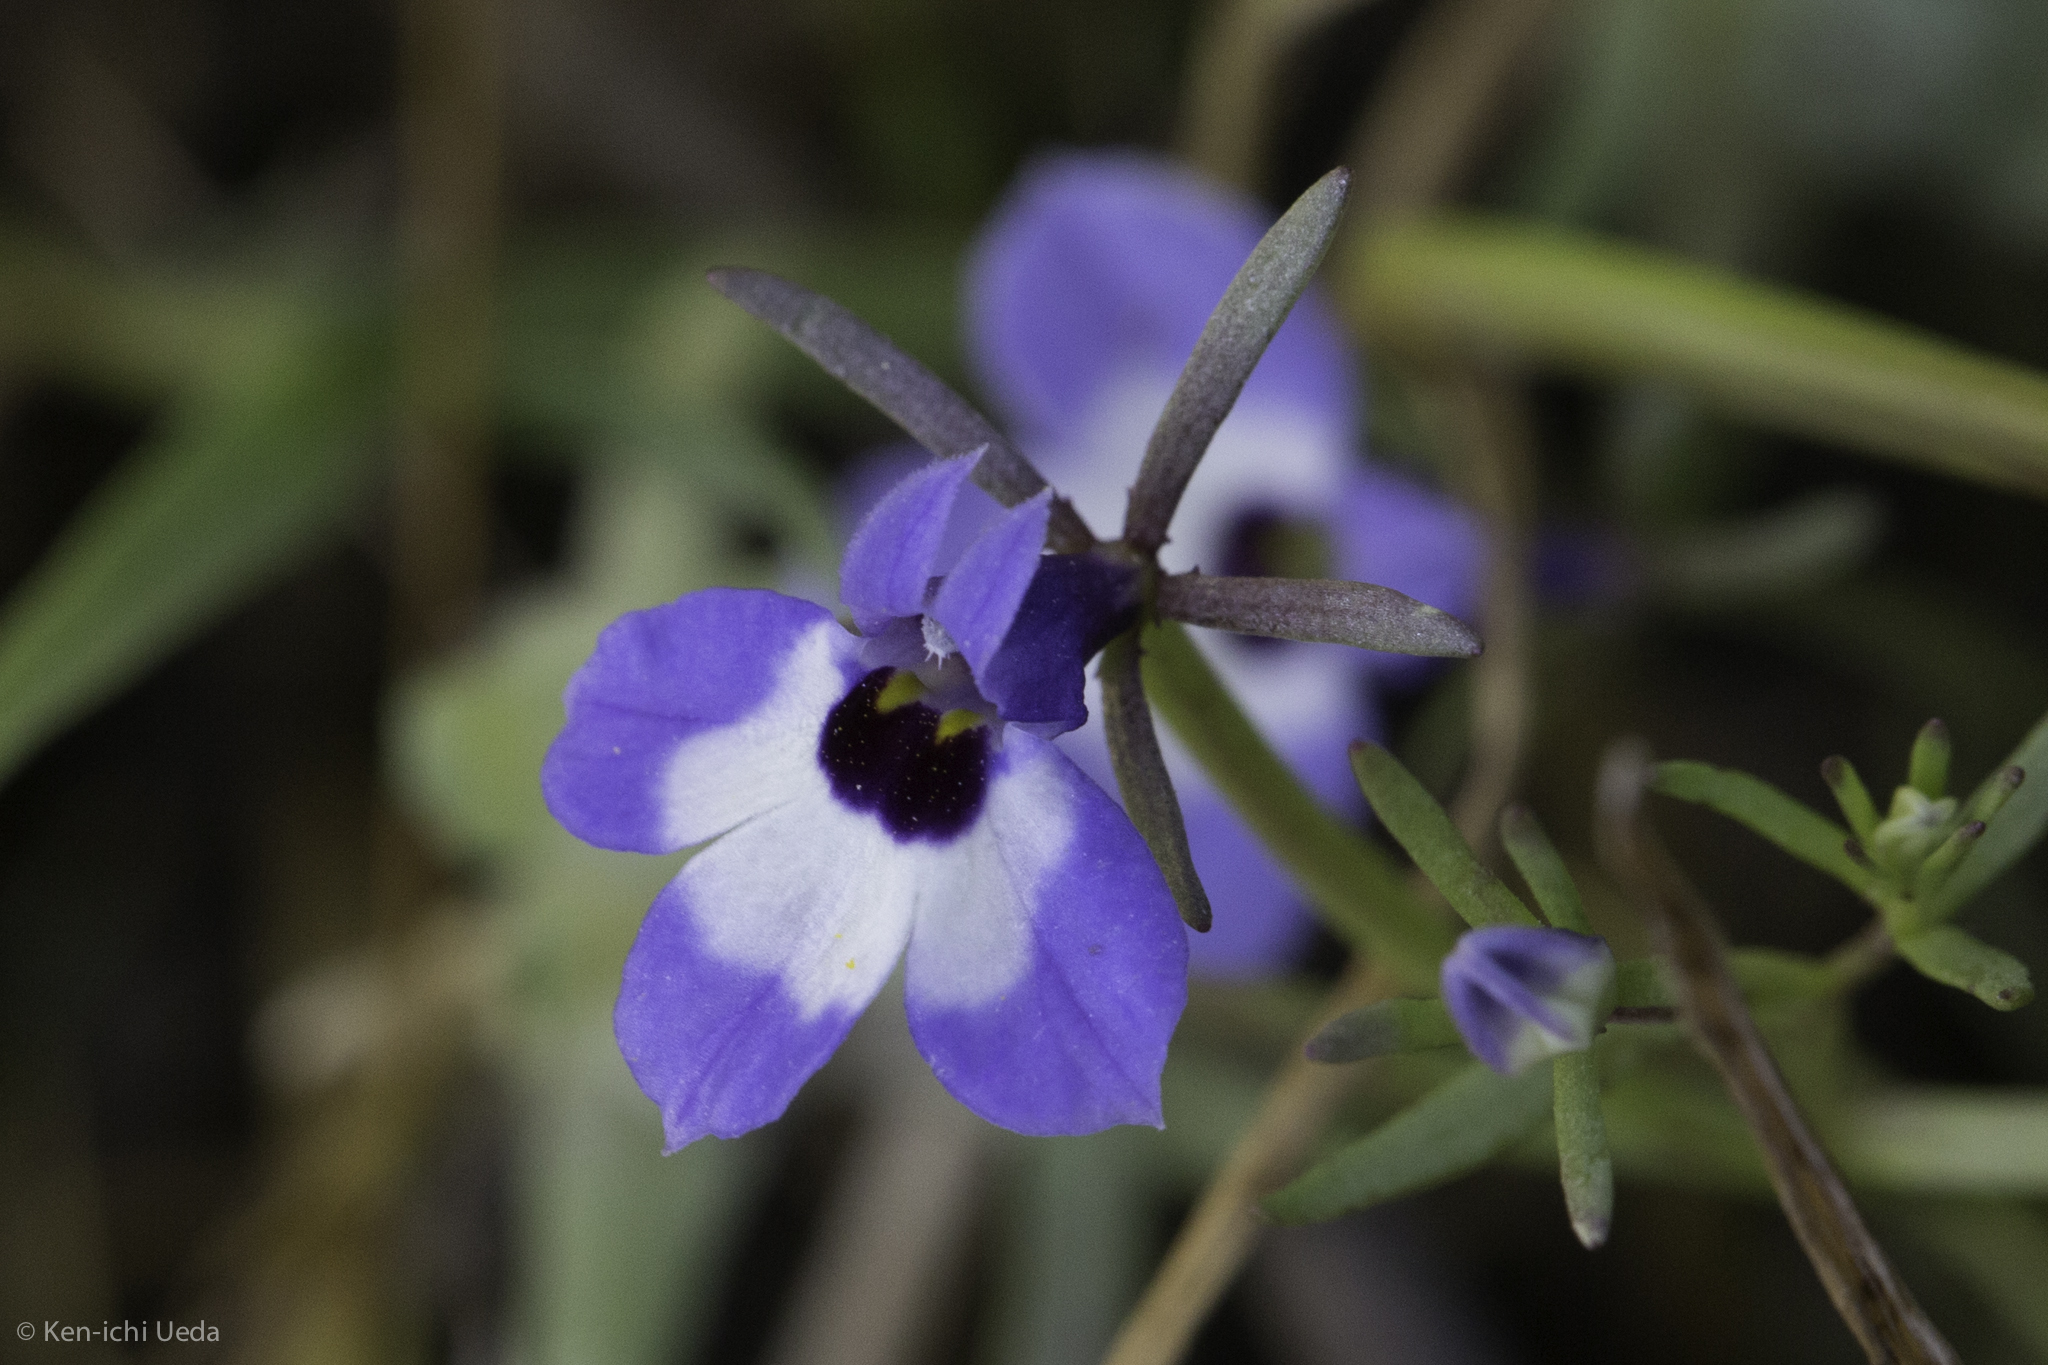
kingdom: Plantae
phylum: Tracheophyta
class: Magnoliopsida
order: Asterales
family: Campanulaceae
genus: Downingia
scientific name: Downingia concolor
